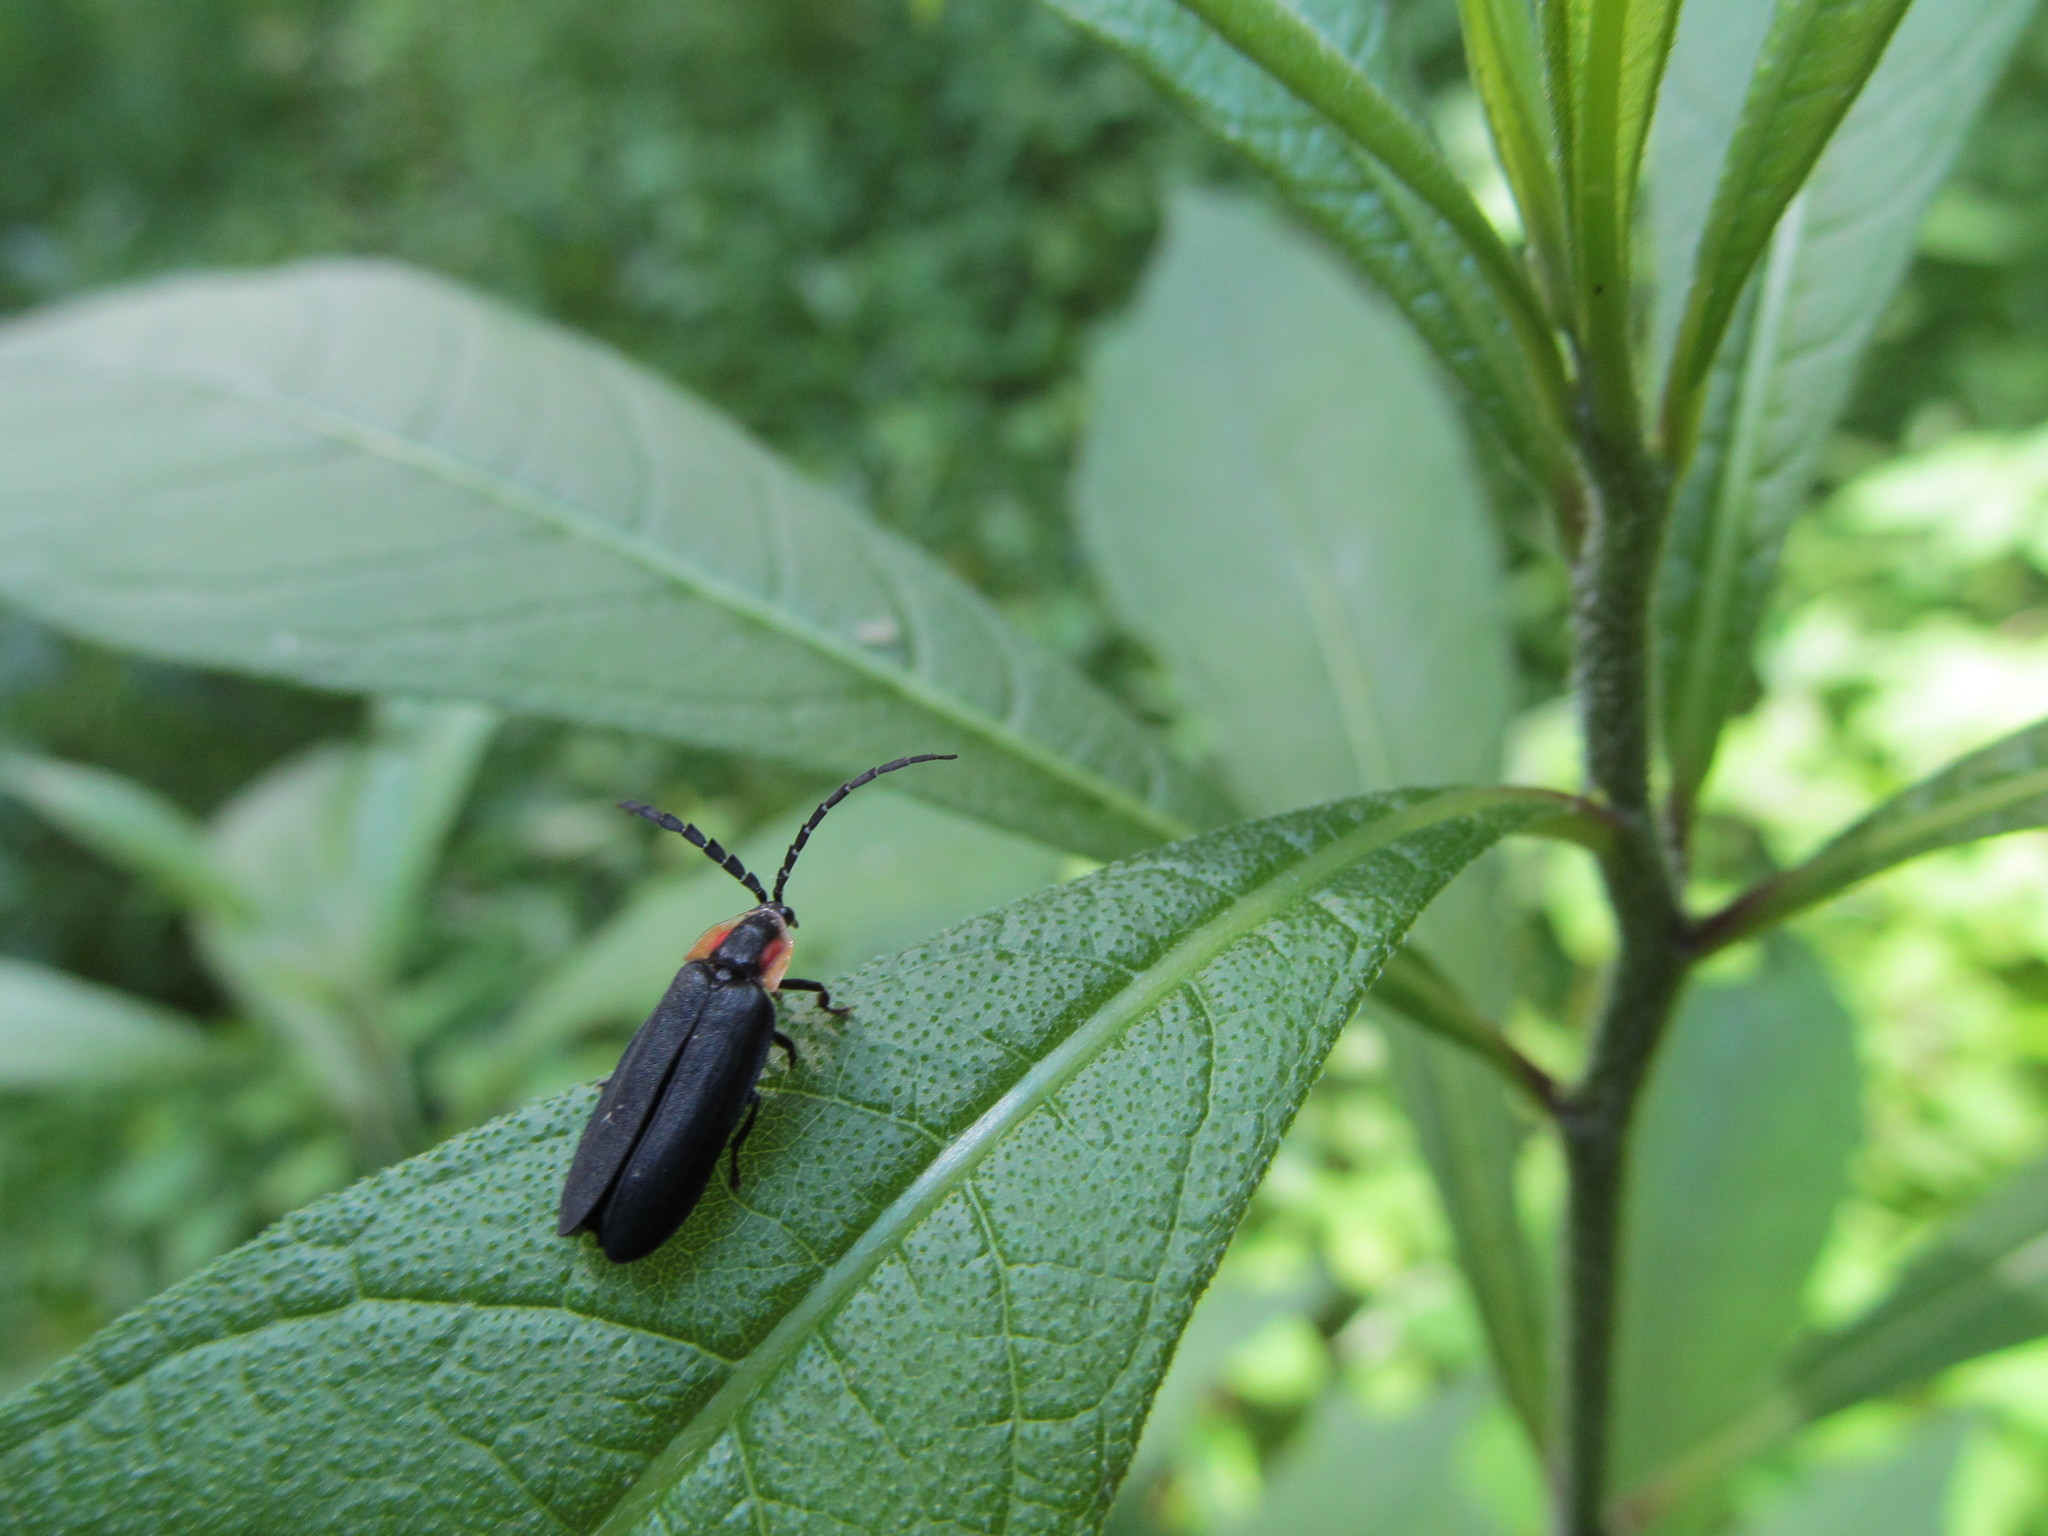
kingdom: Animalia
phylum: Arthropoda
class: Insecta
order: Coleoptera
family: Lampyridae
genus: Lucidota
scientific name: Lucidota atra
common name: Black firefly
